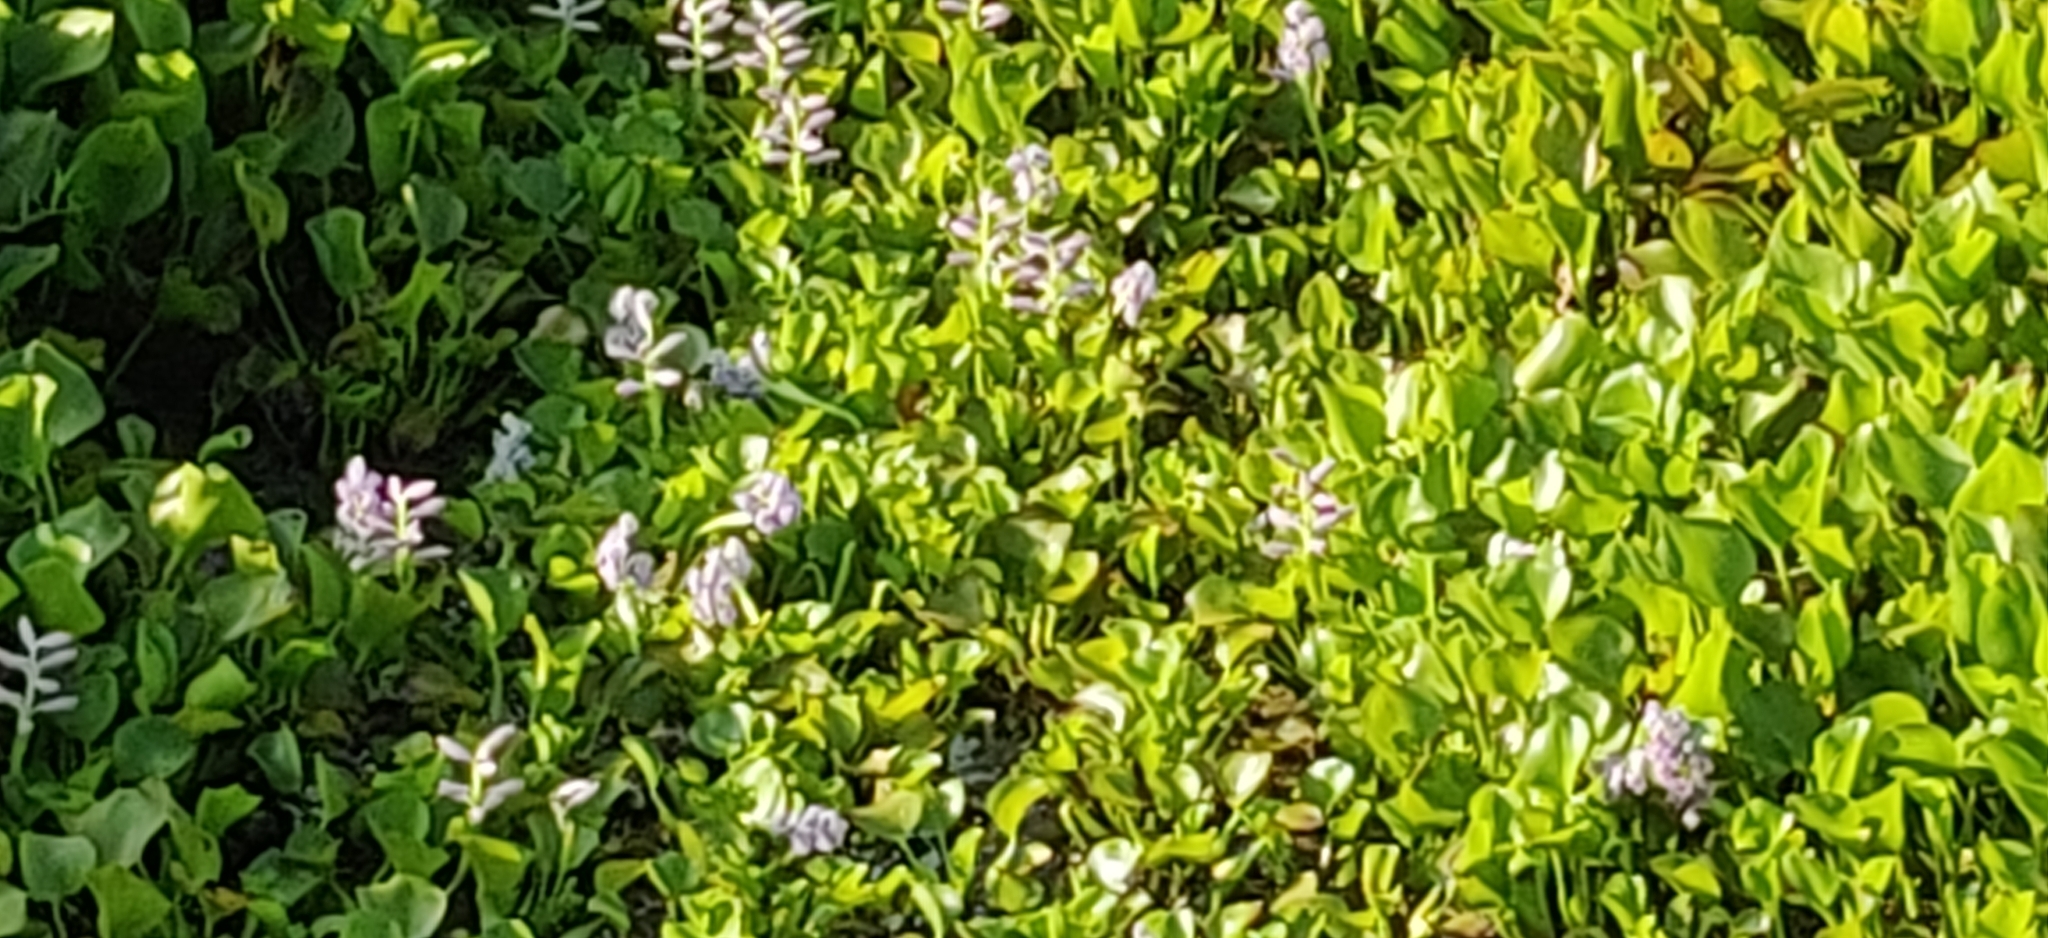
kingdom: Plantae
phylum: Tracheophyta
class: Liliopsida
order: Commelinales
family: Pontederiaceae
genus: Pontederia
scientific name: Pontederia crassipes
